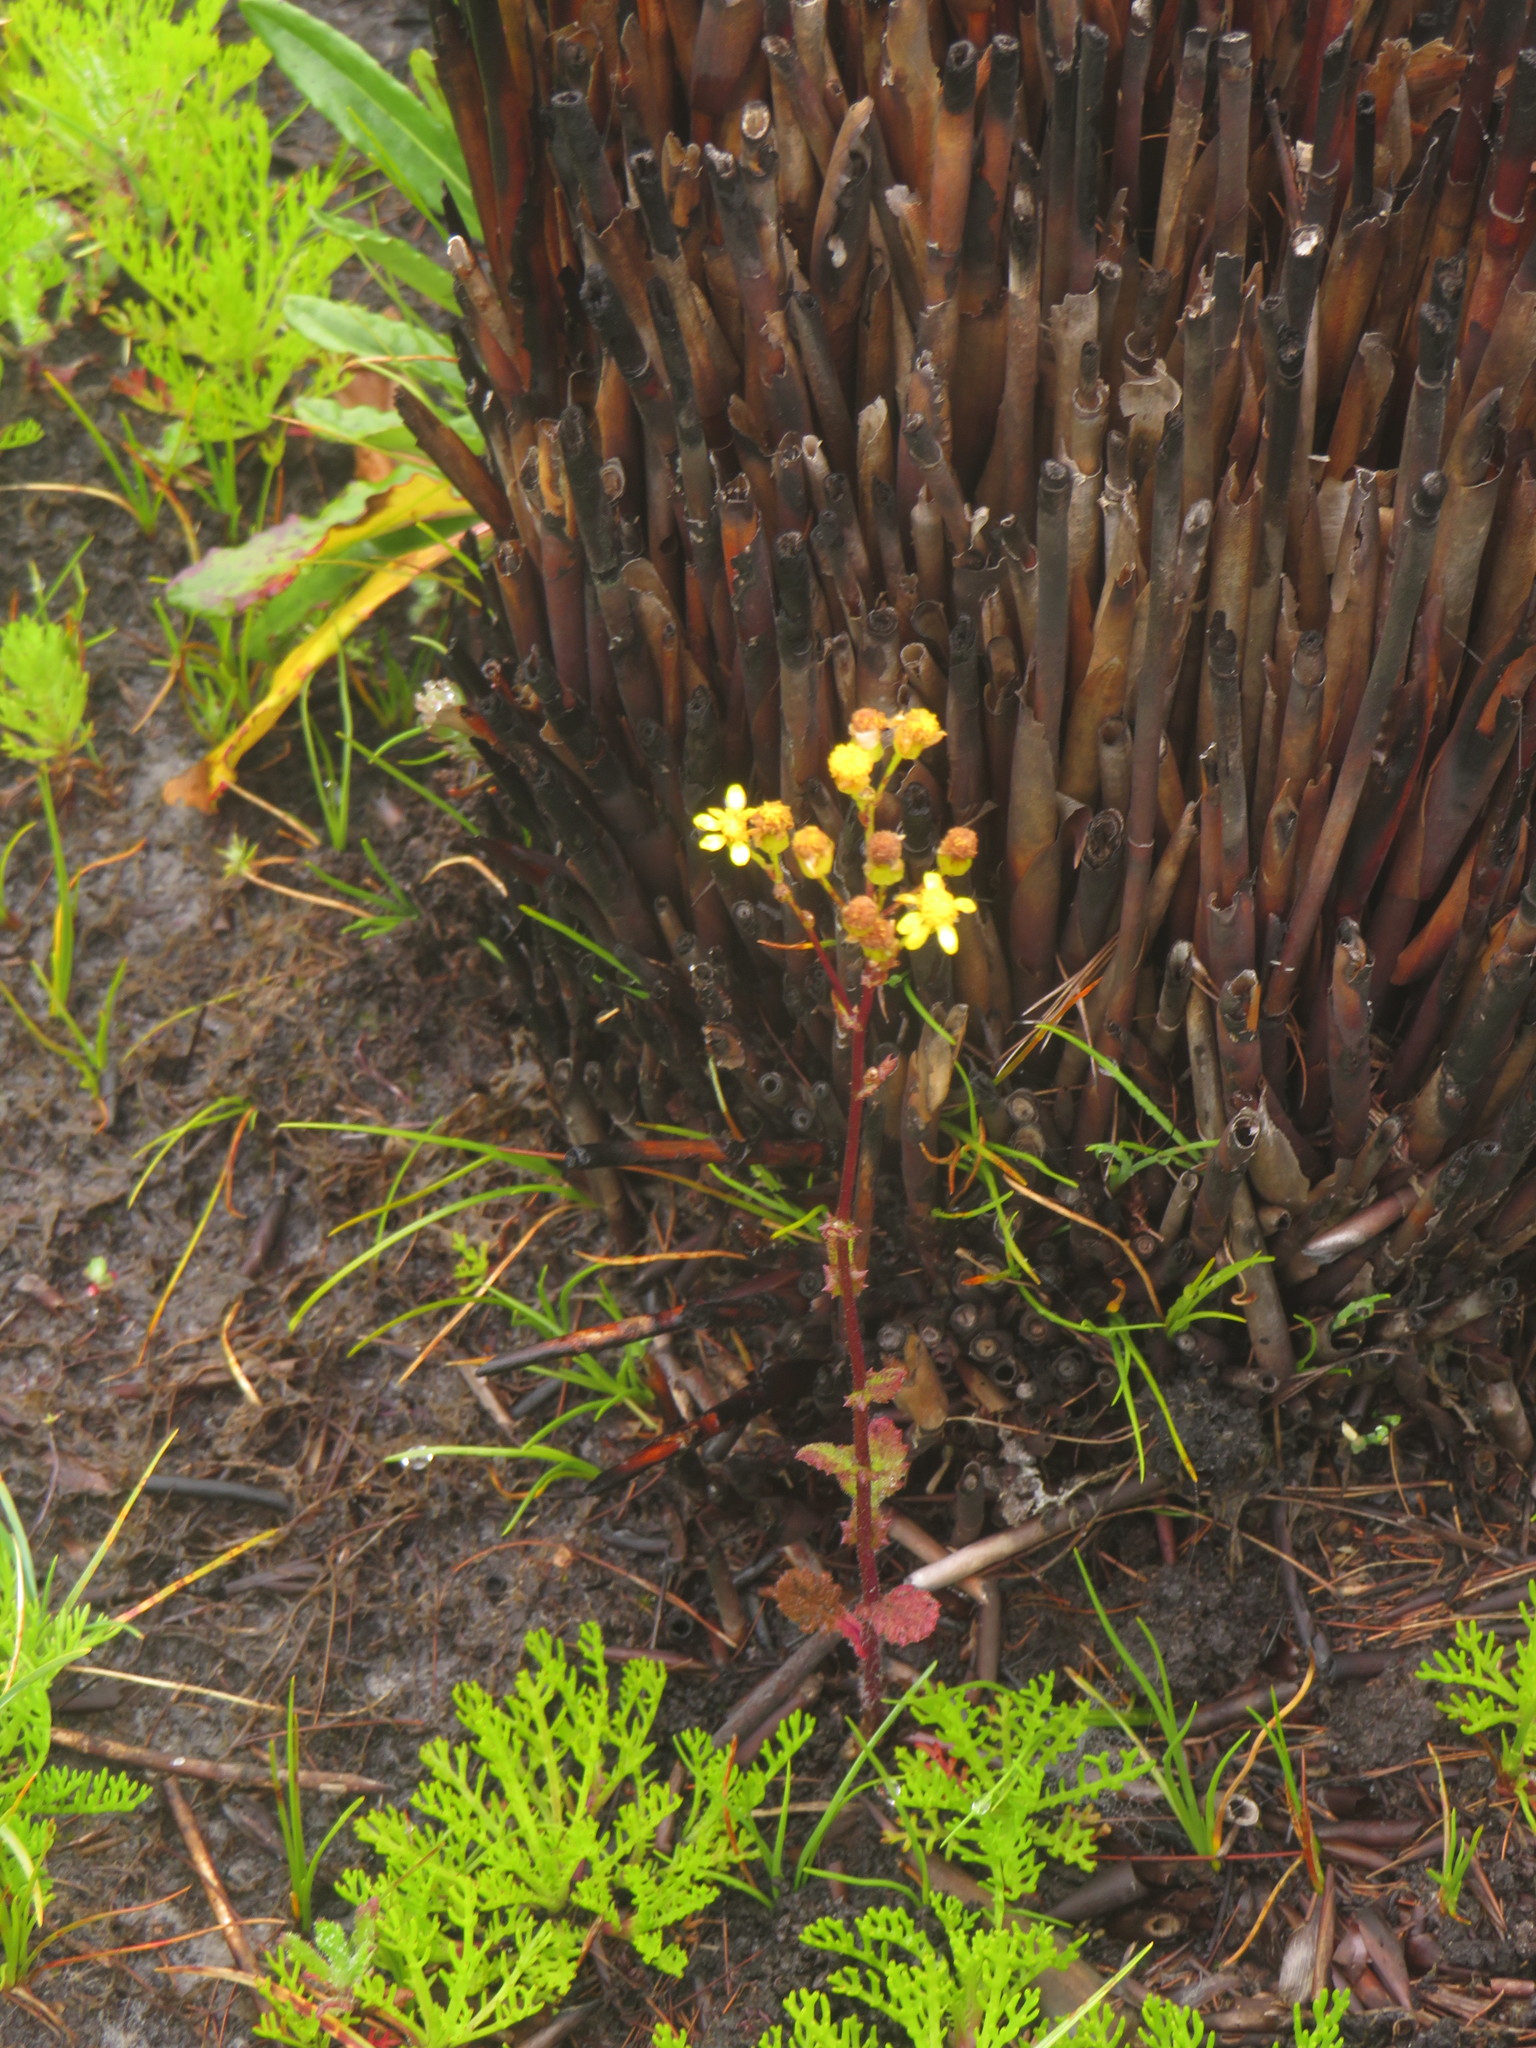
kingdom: Plantae
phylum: Tracheophyta
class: Magnoliopsida
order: Asterales
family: Asteraceae
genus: Senecio
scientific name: Senecio subcanescens
